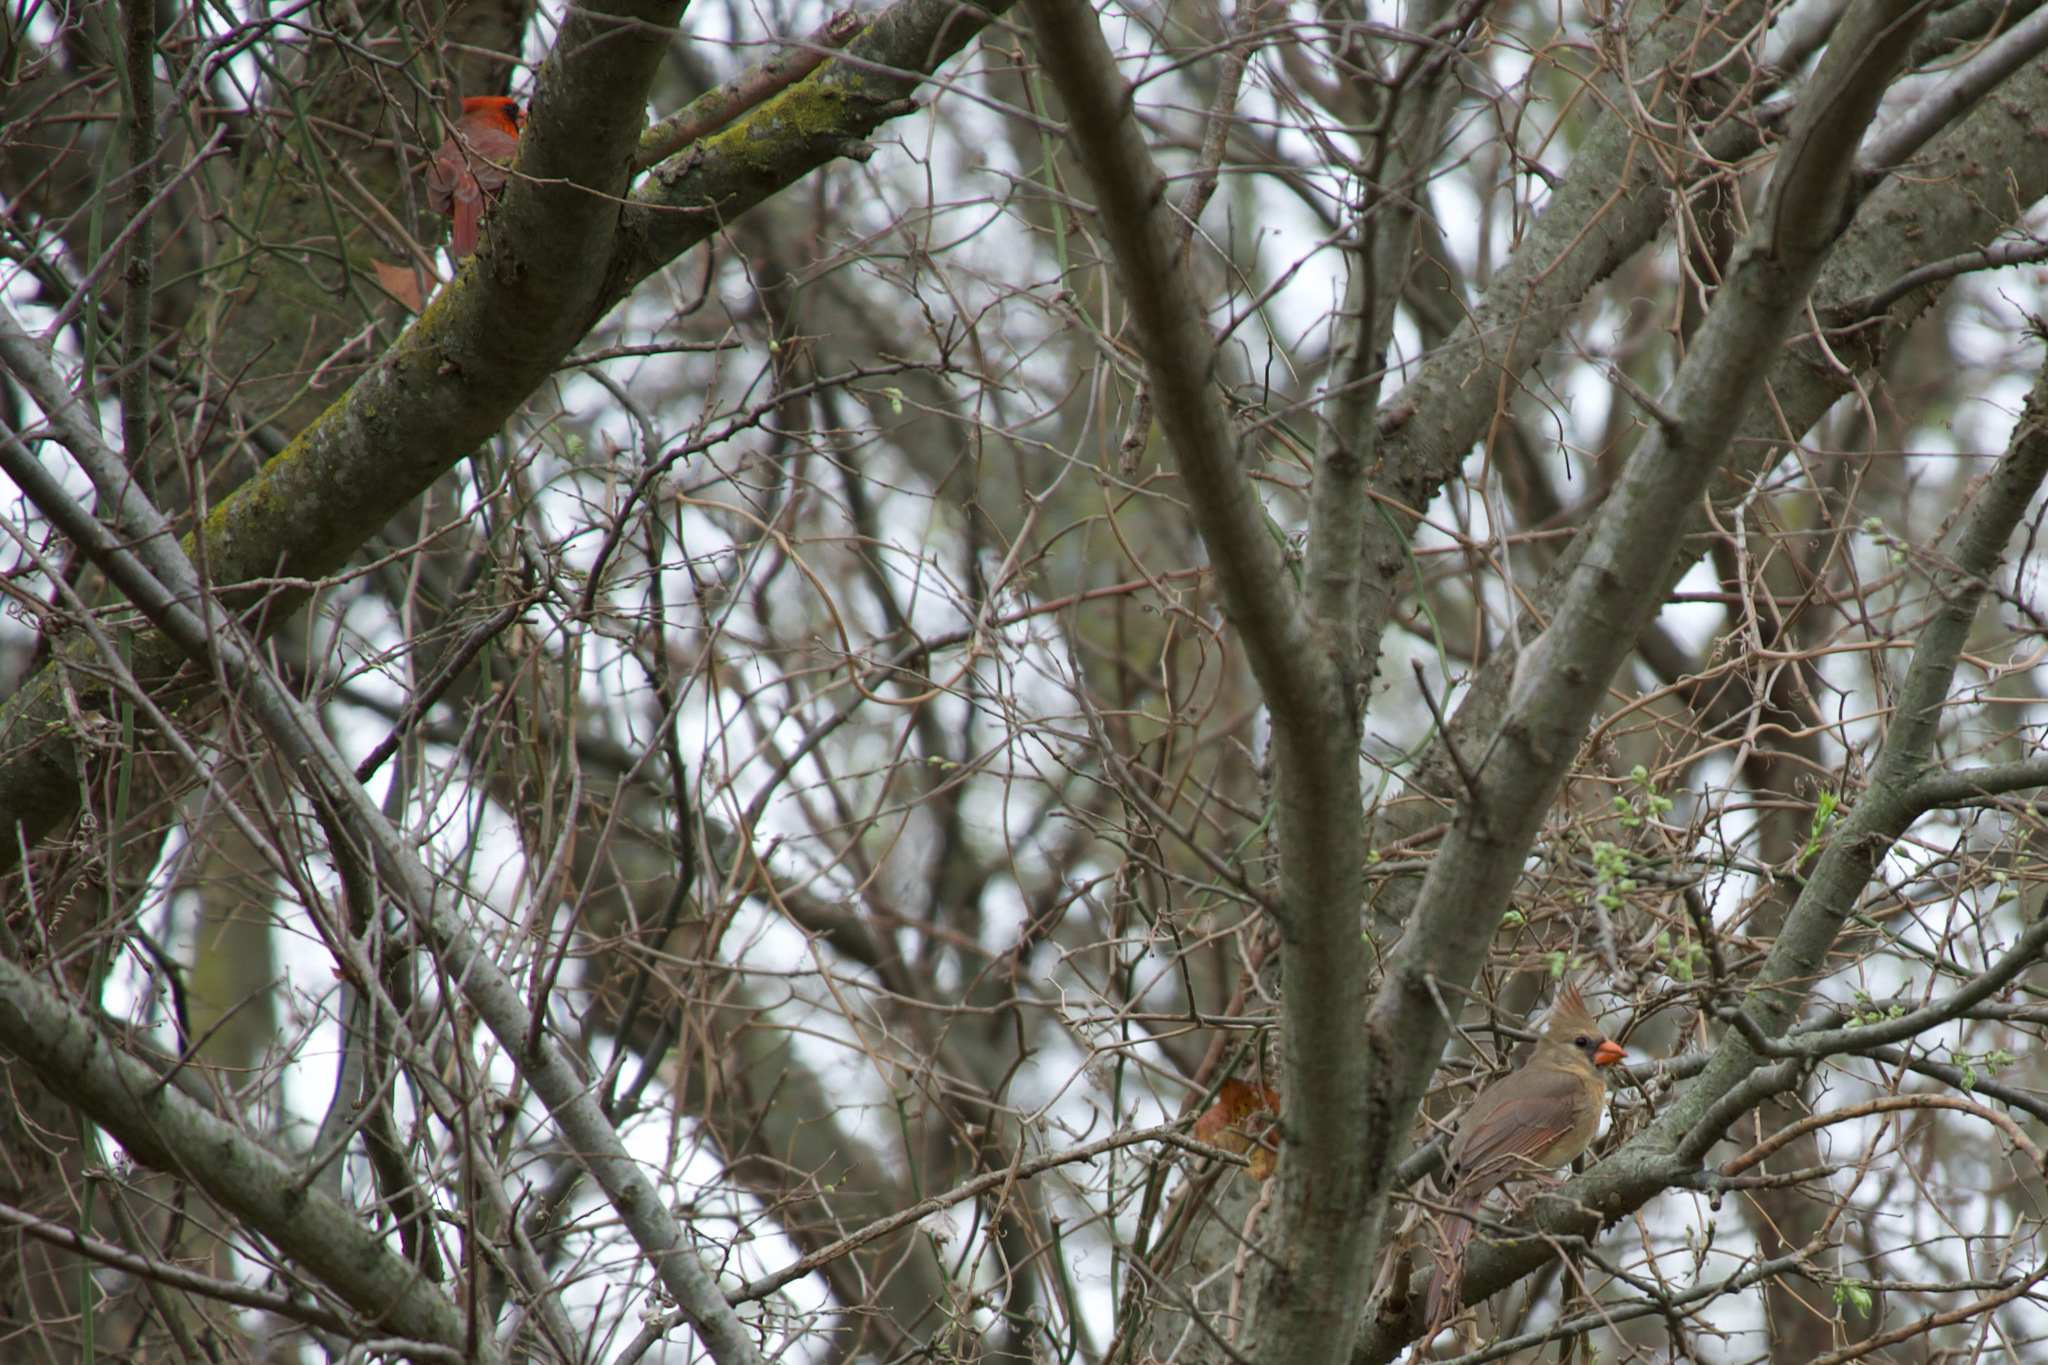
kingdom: Animalia
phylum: Chordata
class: Aves
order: Passeriformes
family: Cardinalidae
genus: Cardinalis
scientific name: Cardinalis cardinalis
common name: Northern cardinal
